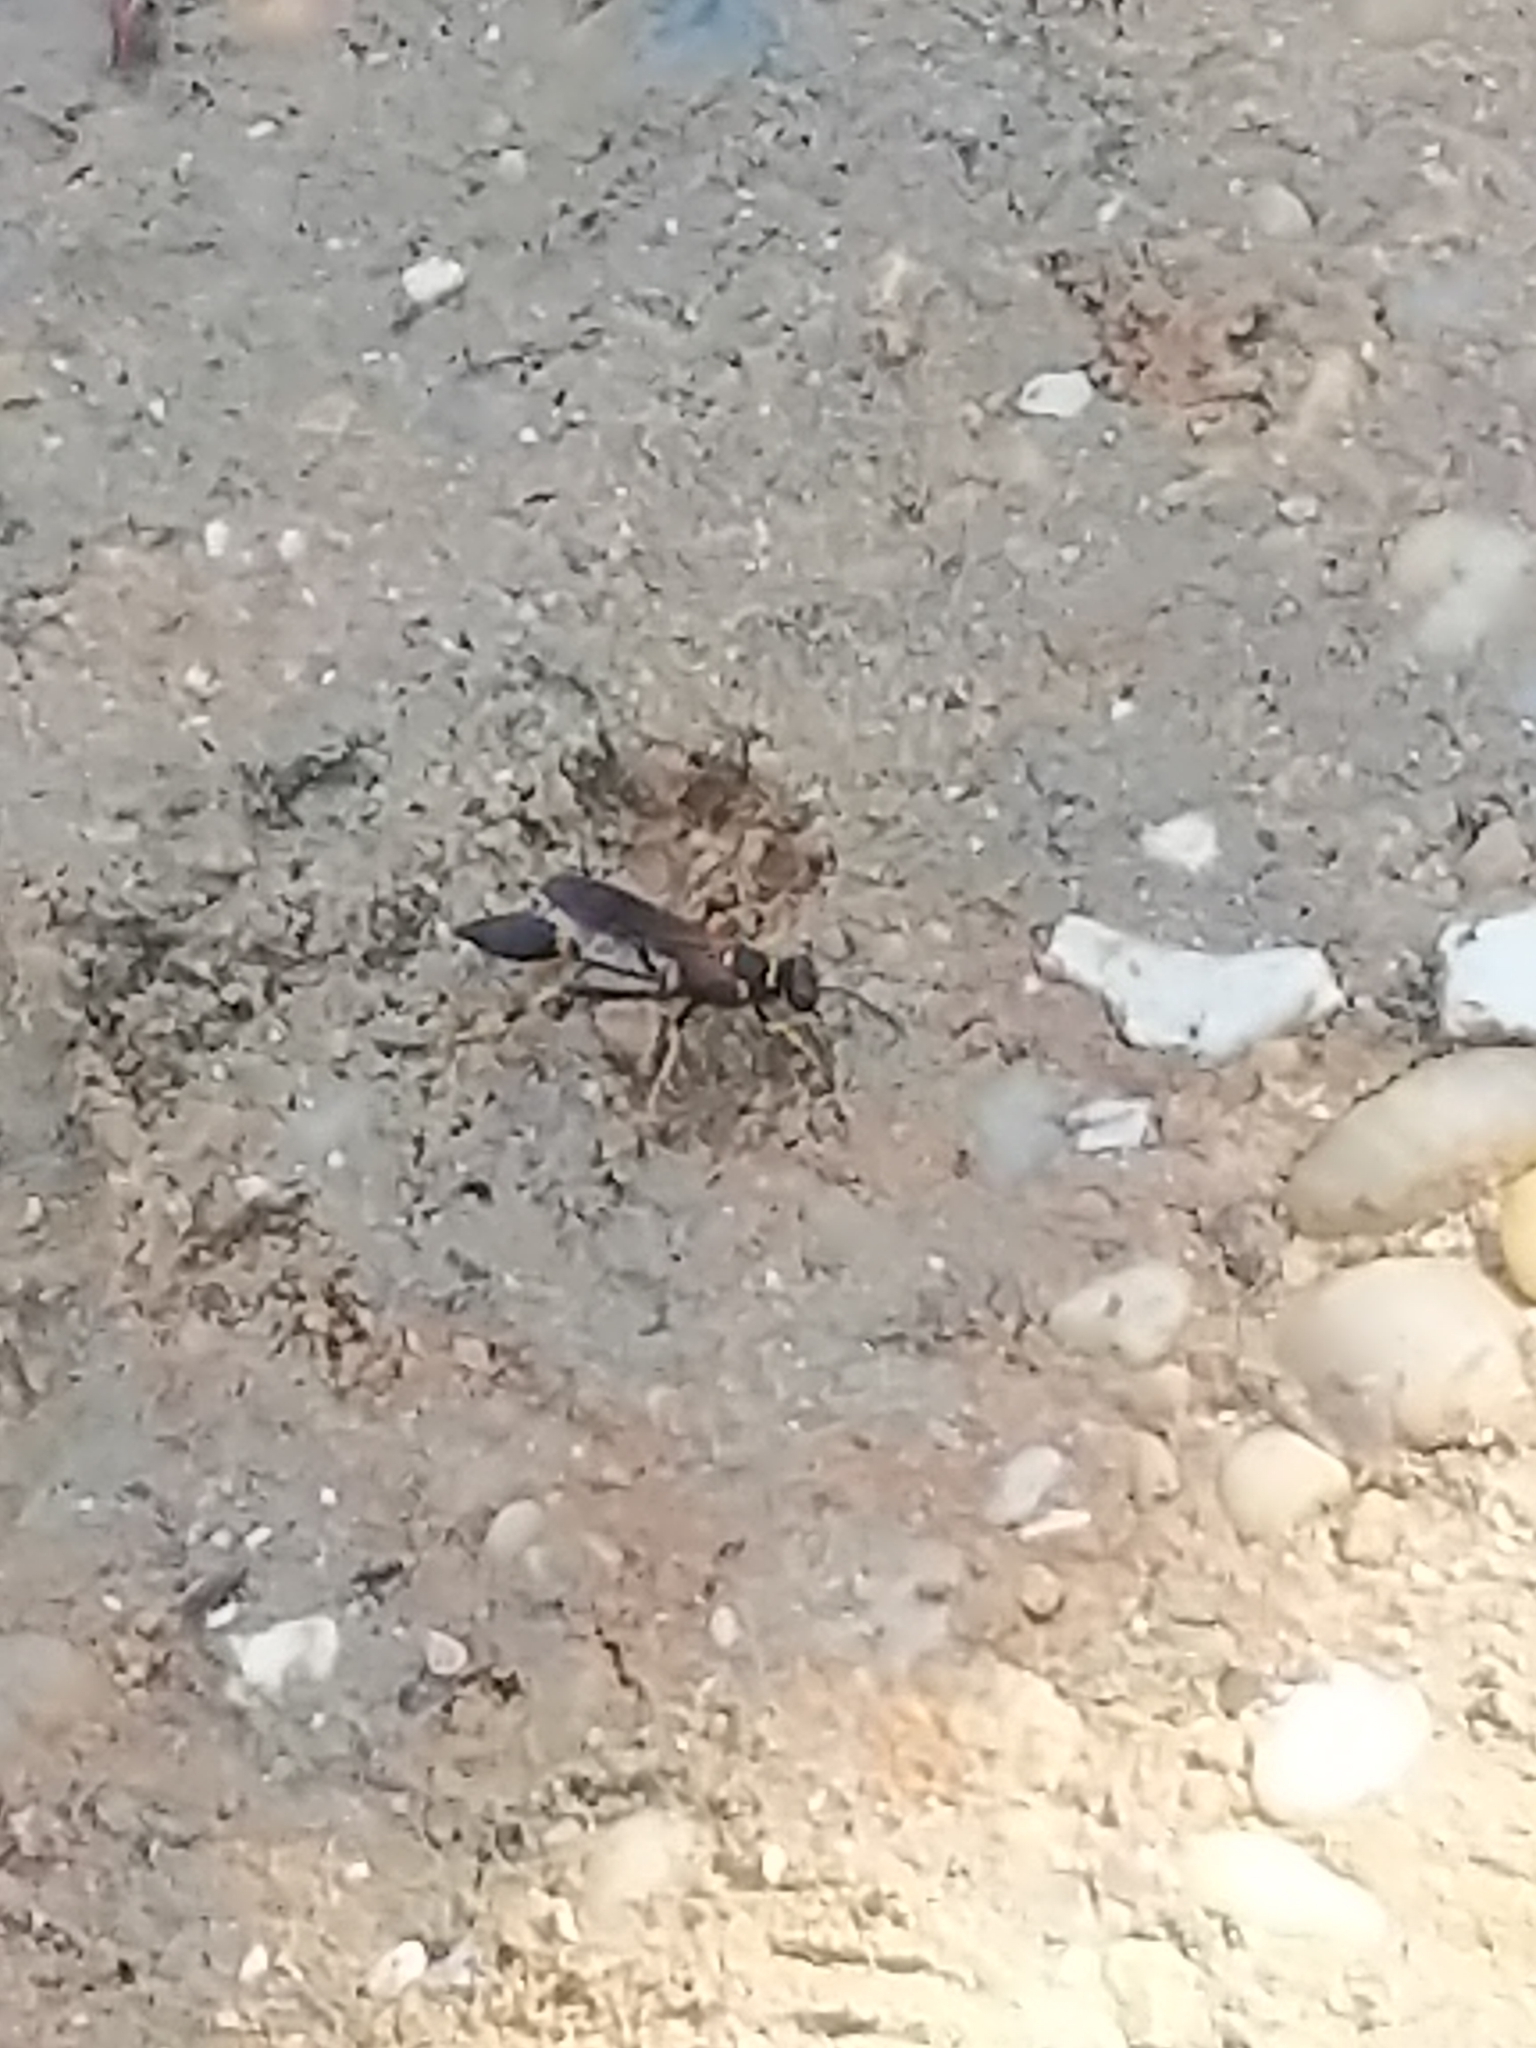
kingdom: Animalia
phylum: Arthropoda
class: Insecta
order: Hymenoptera
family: Sphecidae
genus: Sceliphron
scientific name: Sceliphron caementarium
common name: Mud dauber
